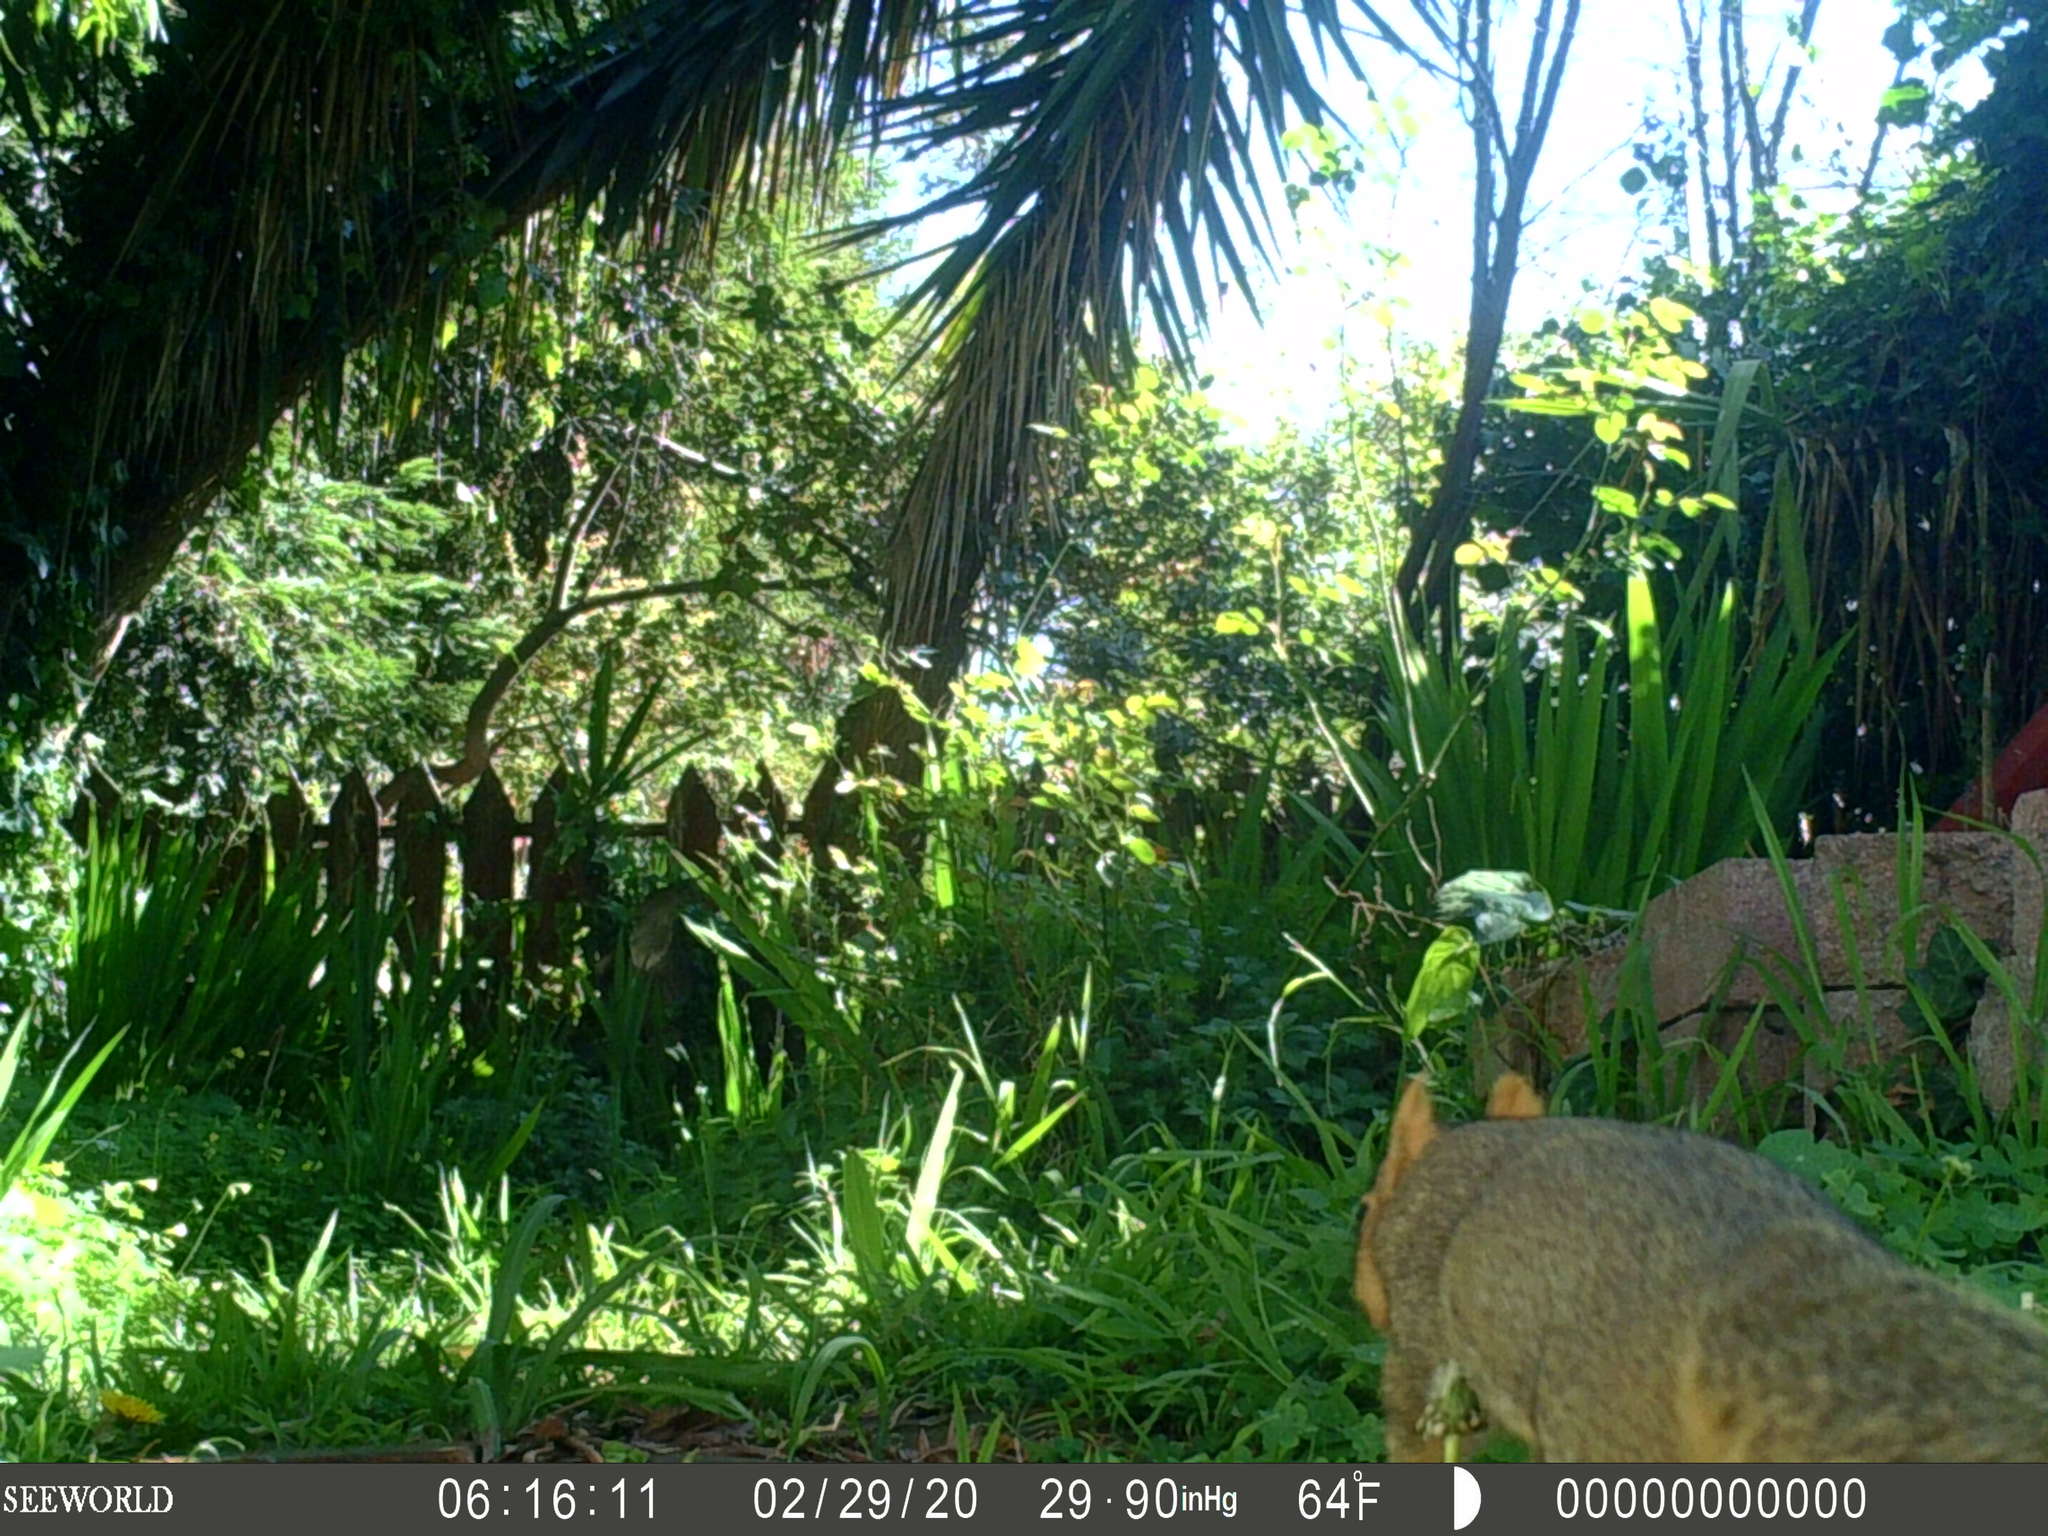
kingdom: Animalia
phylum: Chordata
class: Mammalia
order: Rodentia
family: Sciuridae
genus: Sciurus
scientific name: Sciurus niger
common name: Fox squirrel
